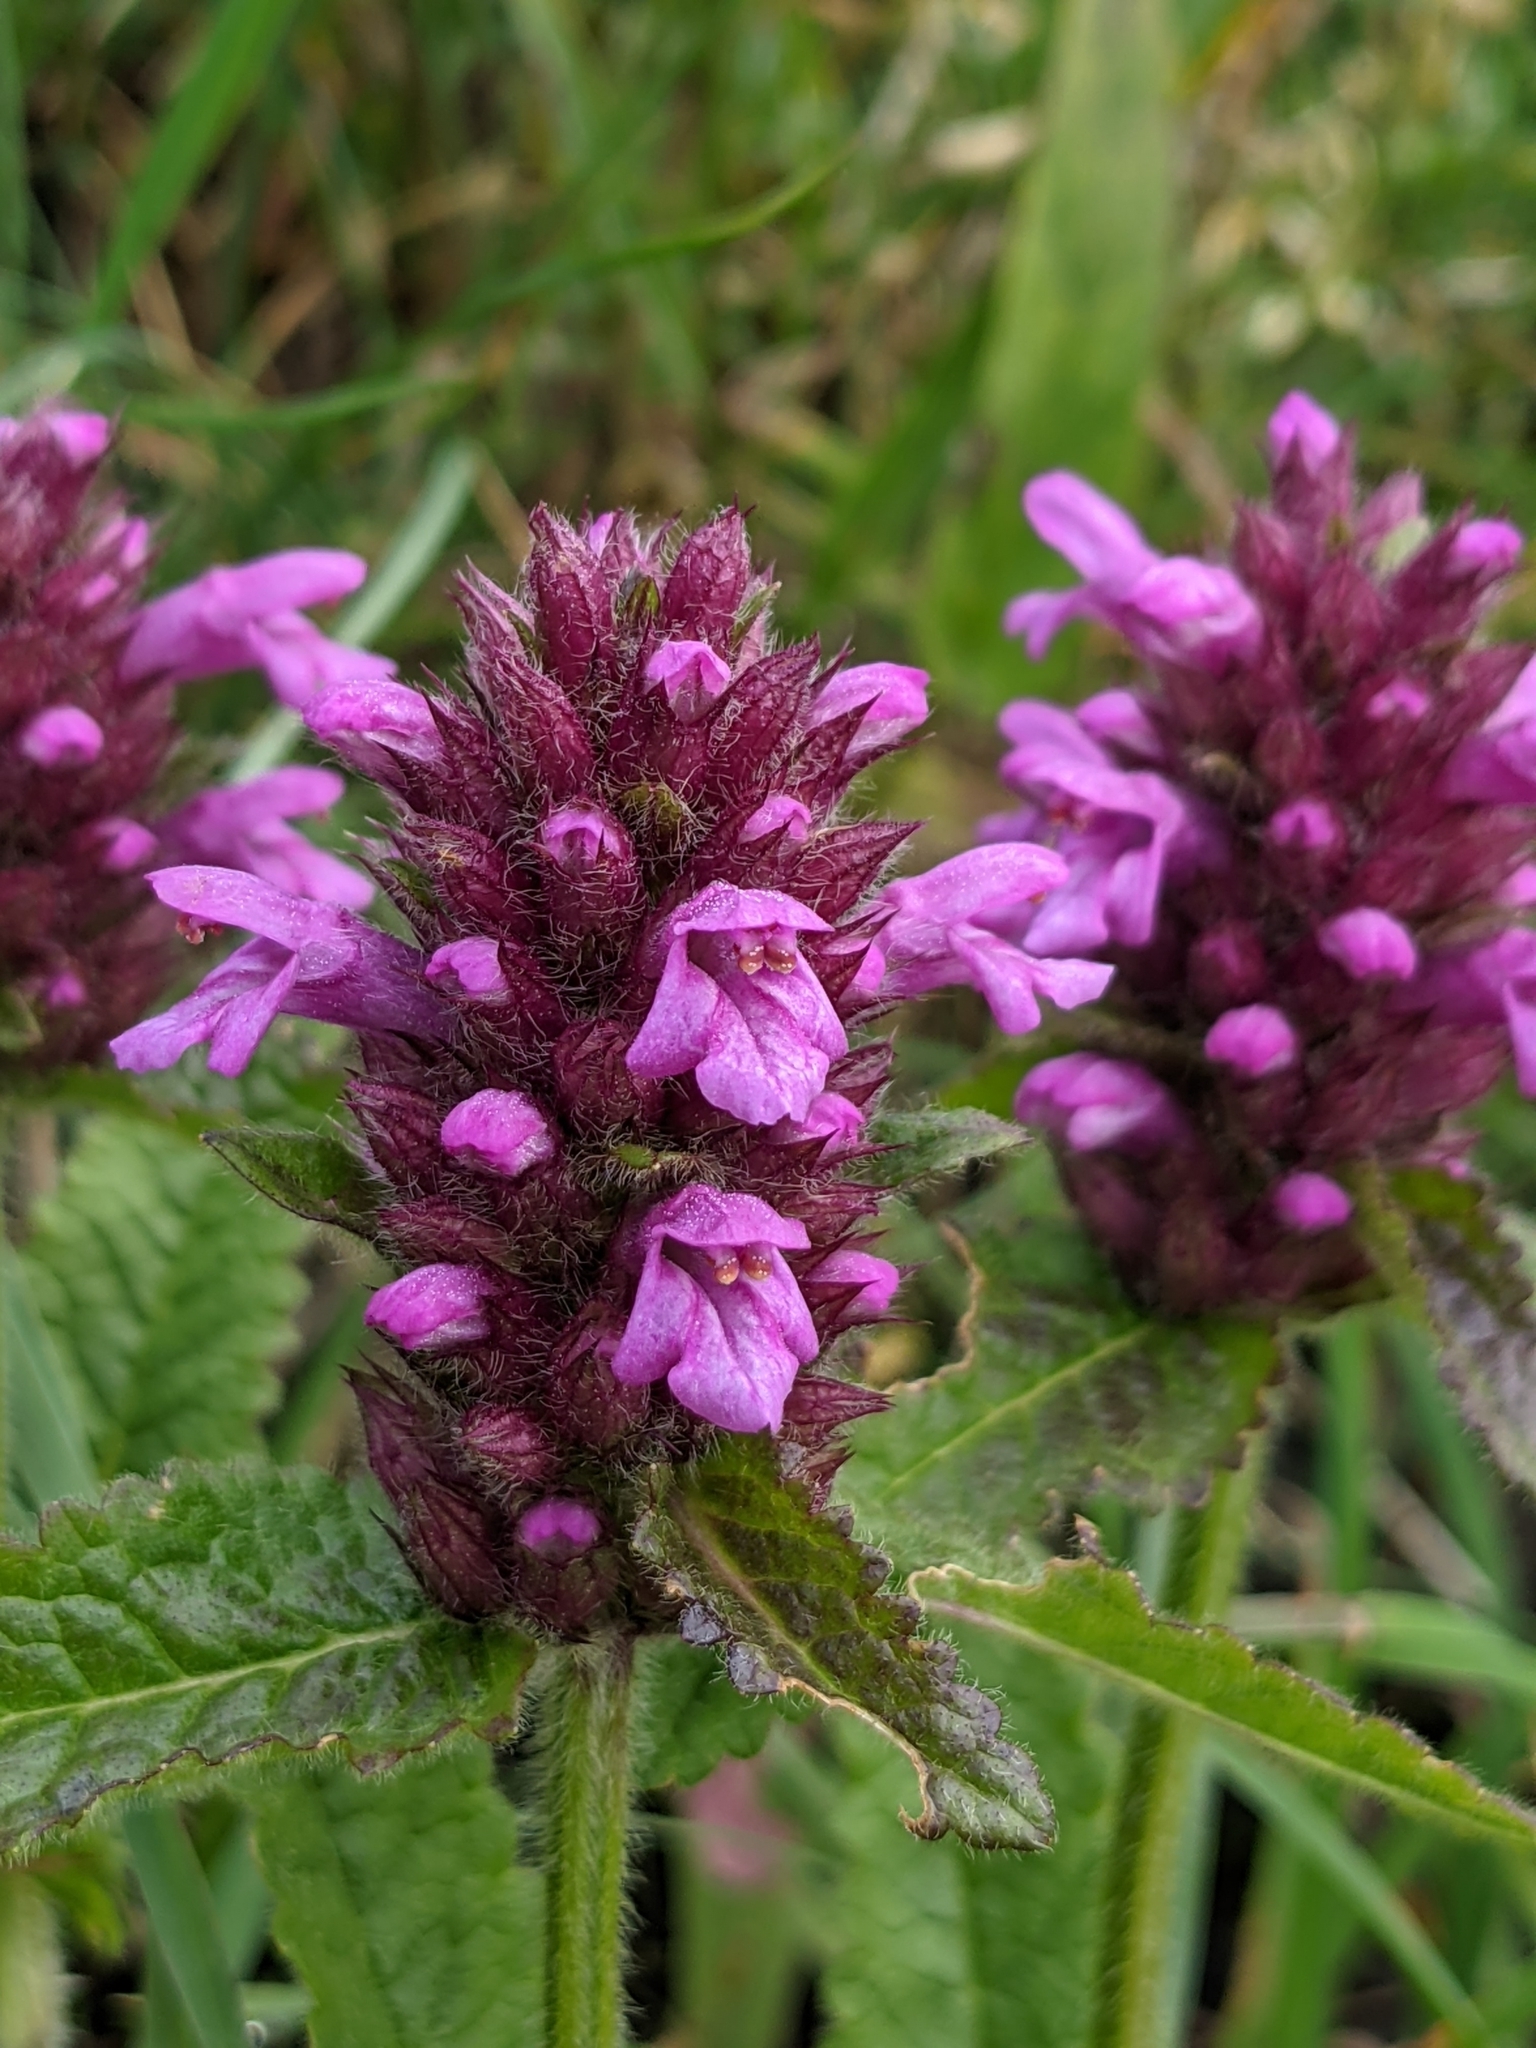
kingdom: Plantae
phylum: Tracheophyta
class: Magnoliopsida
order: Lamiales
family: Lamiaceae
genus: Betonica
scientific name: Betonica hirsuta
